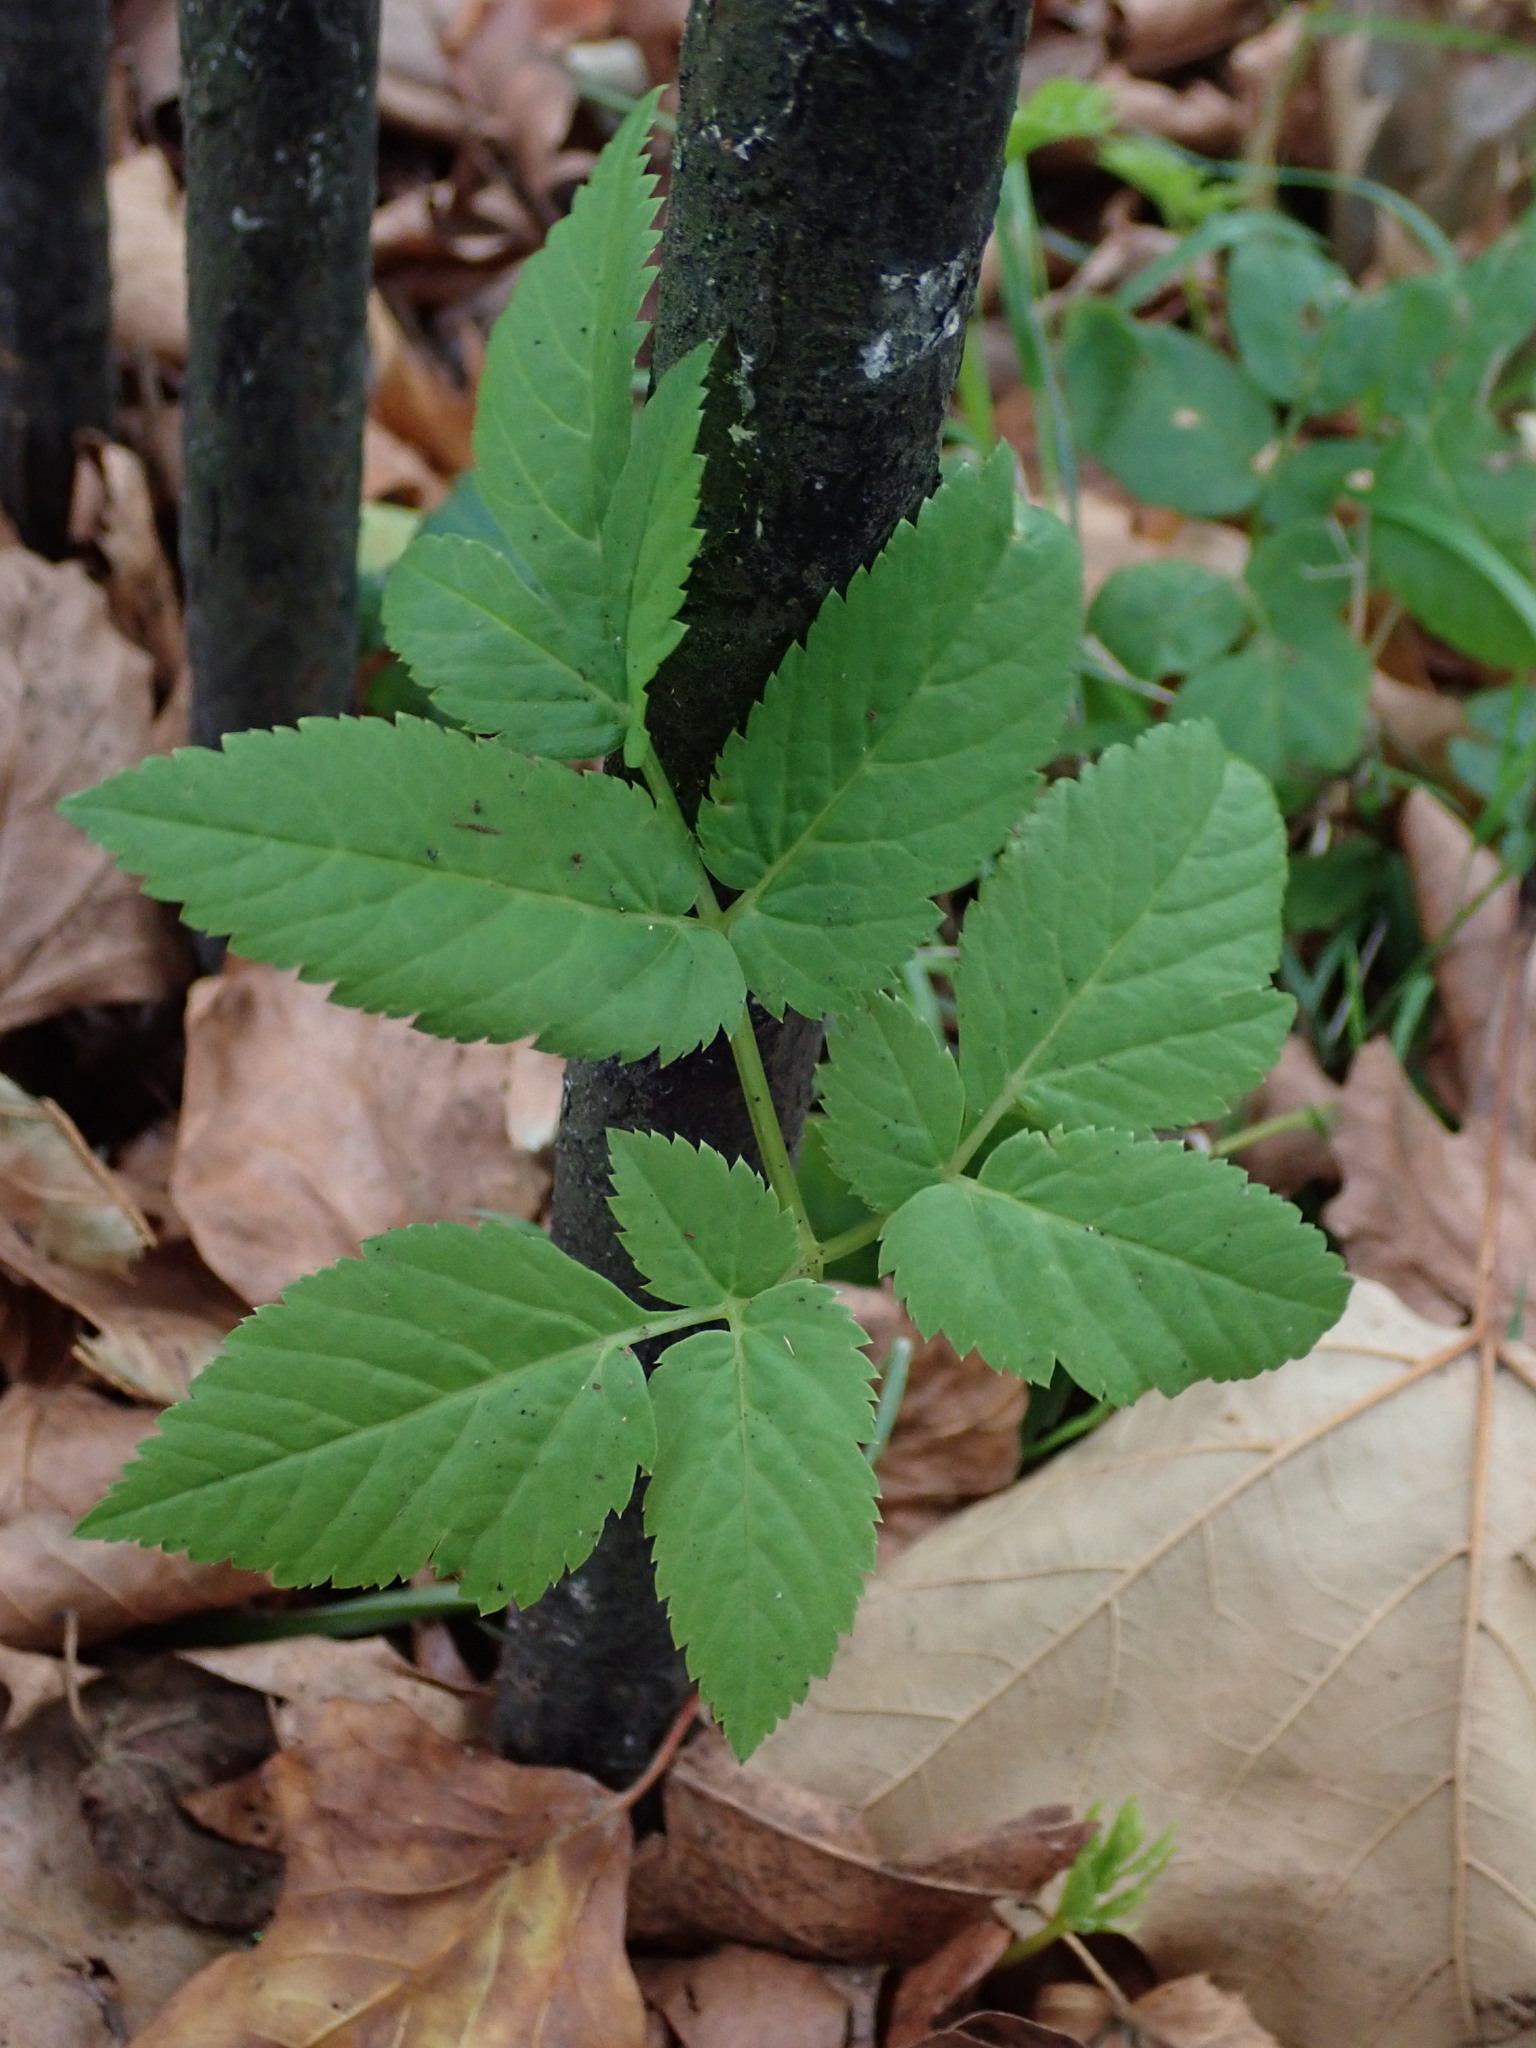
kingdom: Plantae
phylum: Tracheophyta
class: Magnoliopsida
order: Apiales
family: Apiaceae
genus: Aegopodium
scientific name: Aegopodium podagraria
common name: Ground-elder
